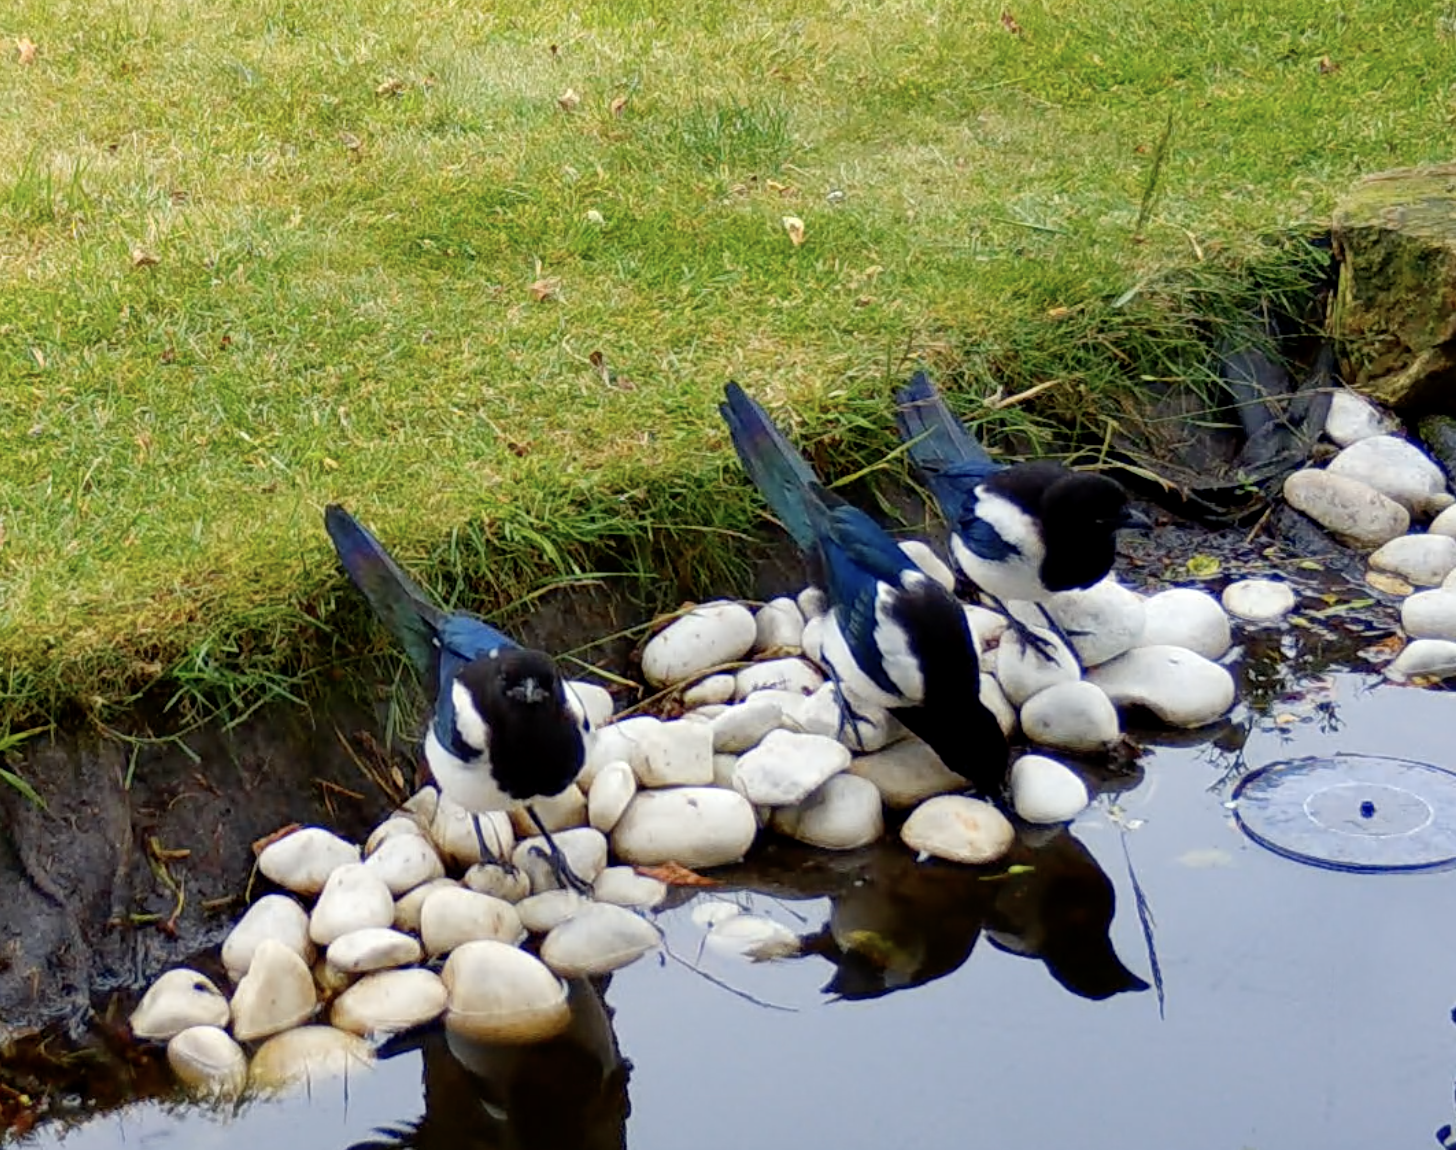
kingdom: Animalia
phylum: Chordata
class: Aves
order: Passeriformes
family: Corvidae
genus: Pica
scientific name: Pica pica
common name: Eurasian magpie
